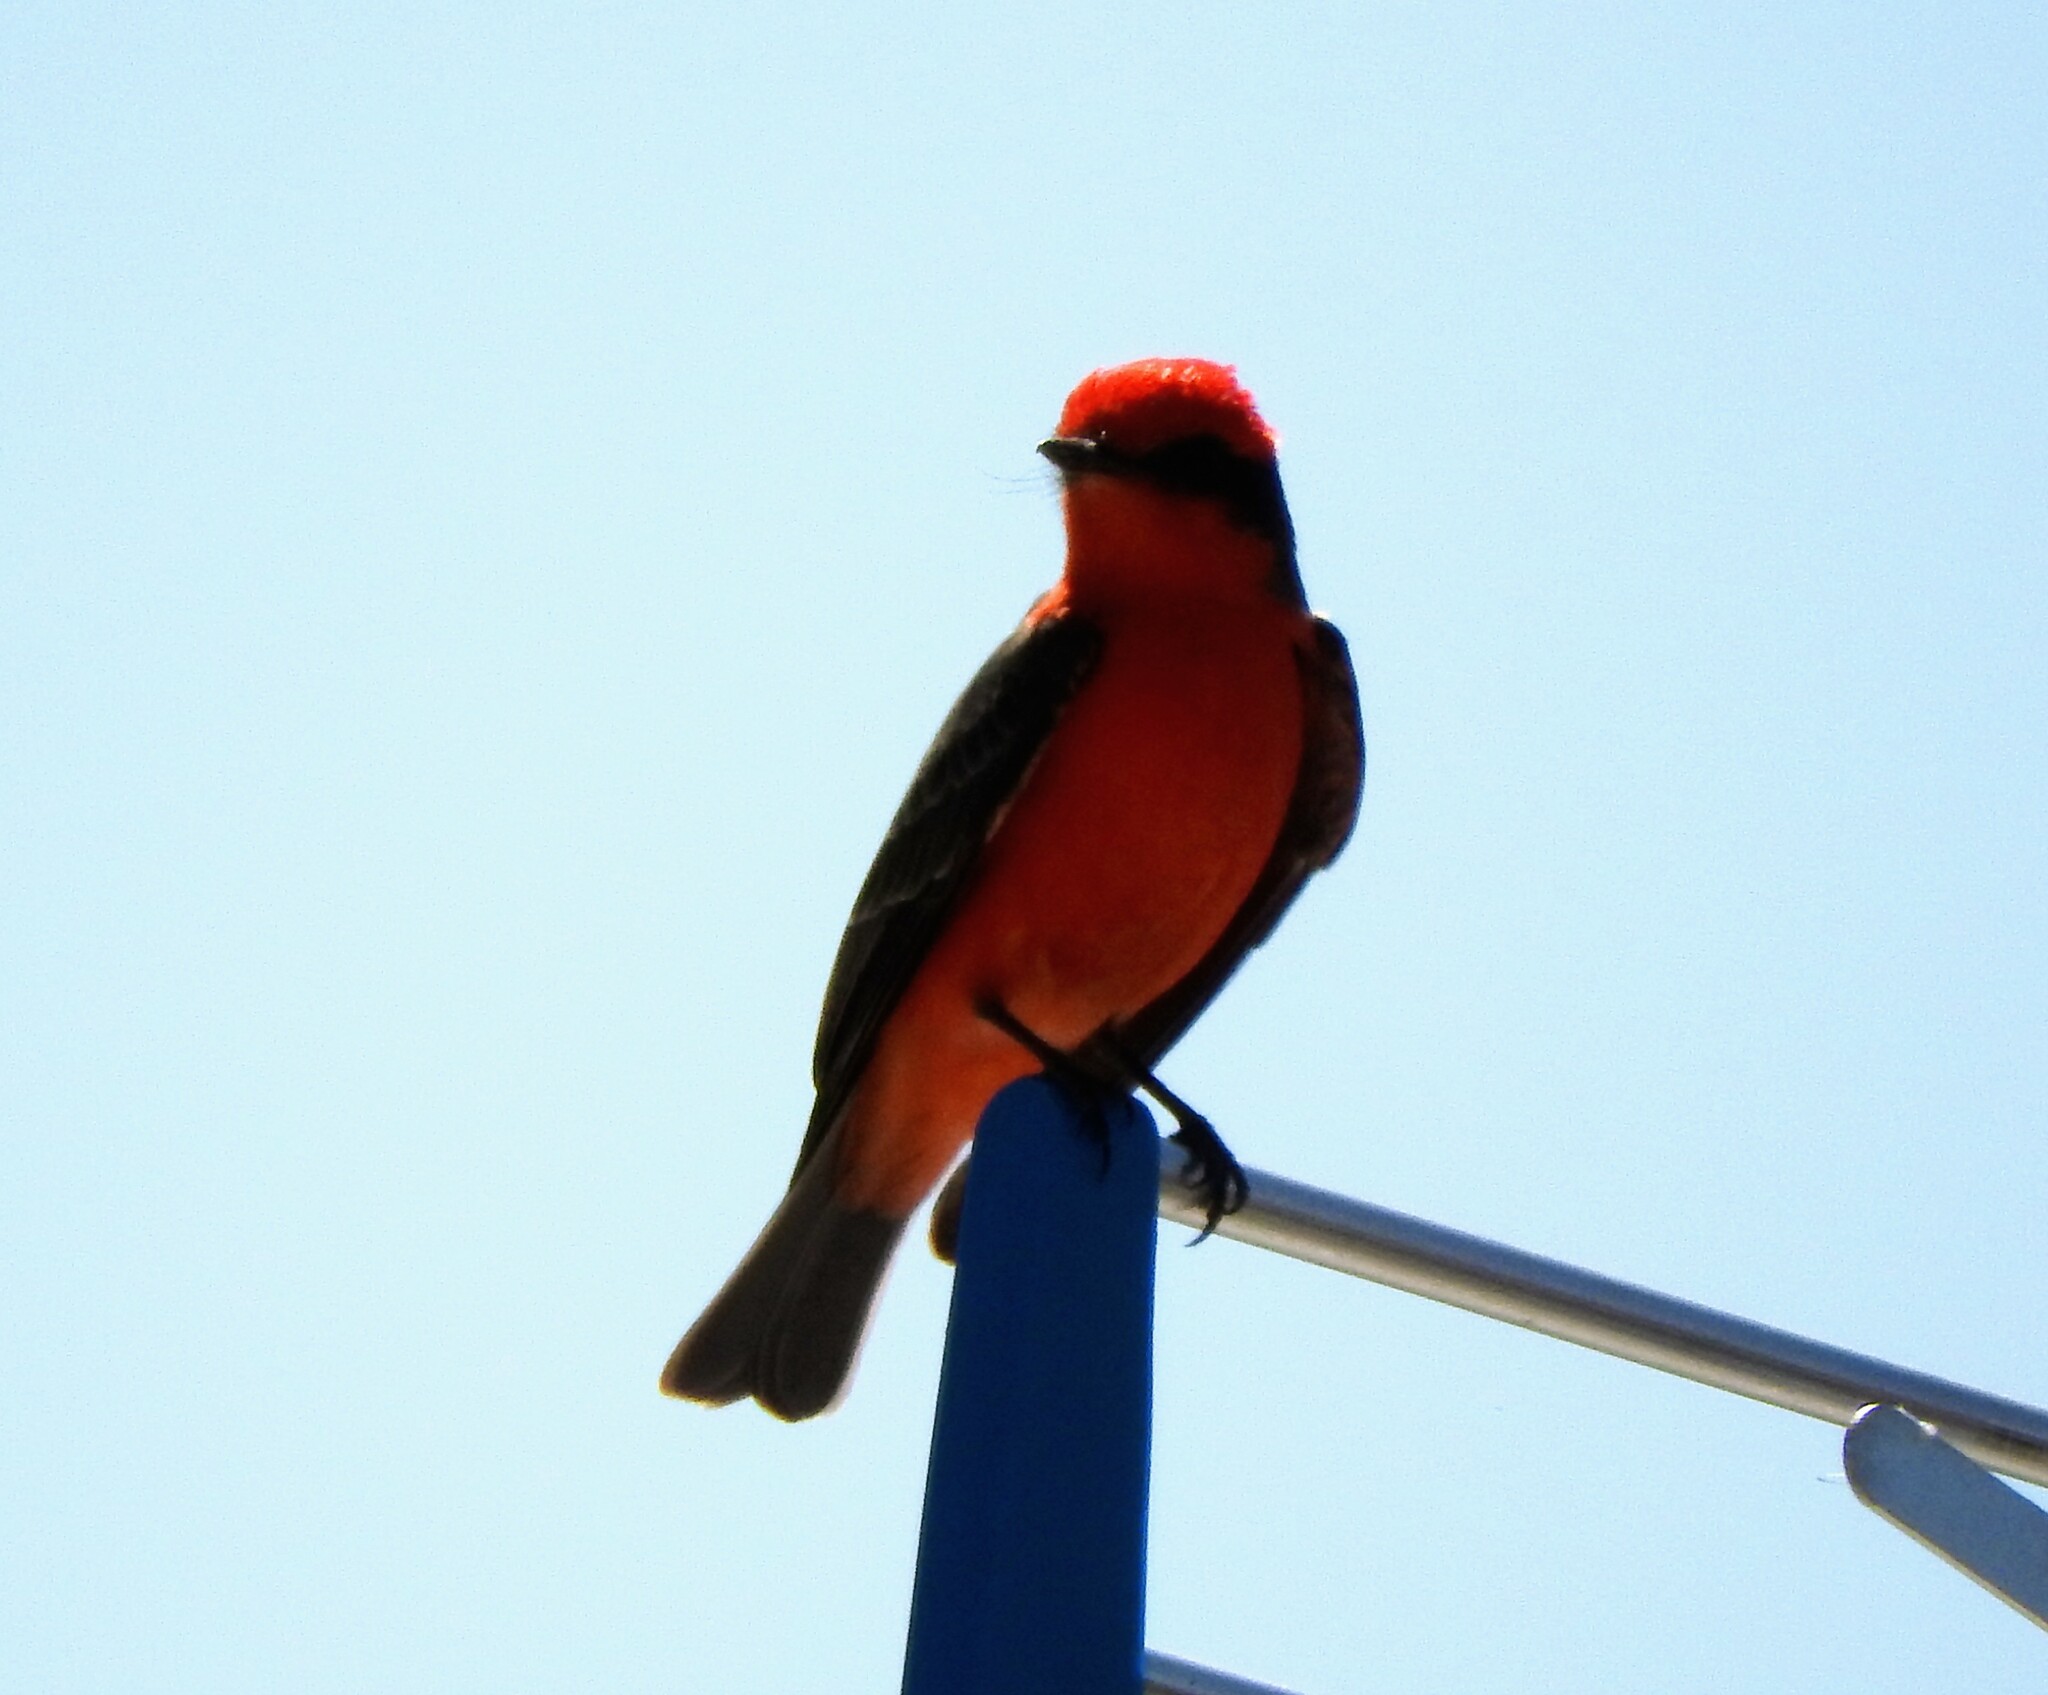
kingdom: Animalia
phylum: Chordata
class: Aves
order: Passeriformes
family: Tyrannidae
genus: Pyrocephalus
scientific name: Pyrocephalus rubinus
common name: Vermilion flycatcher
